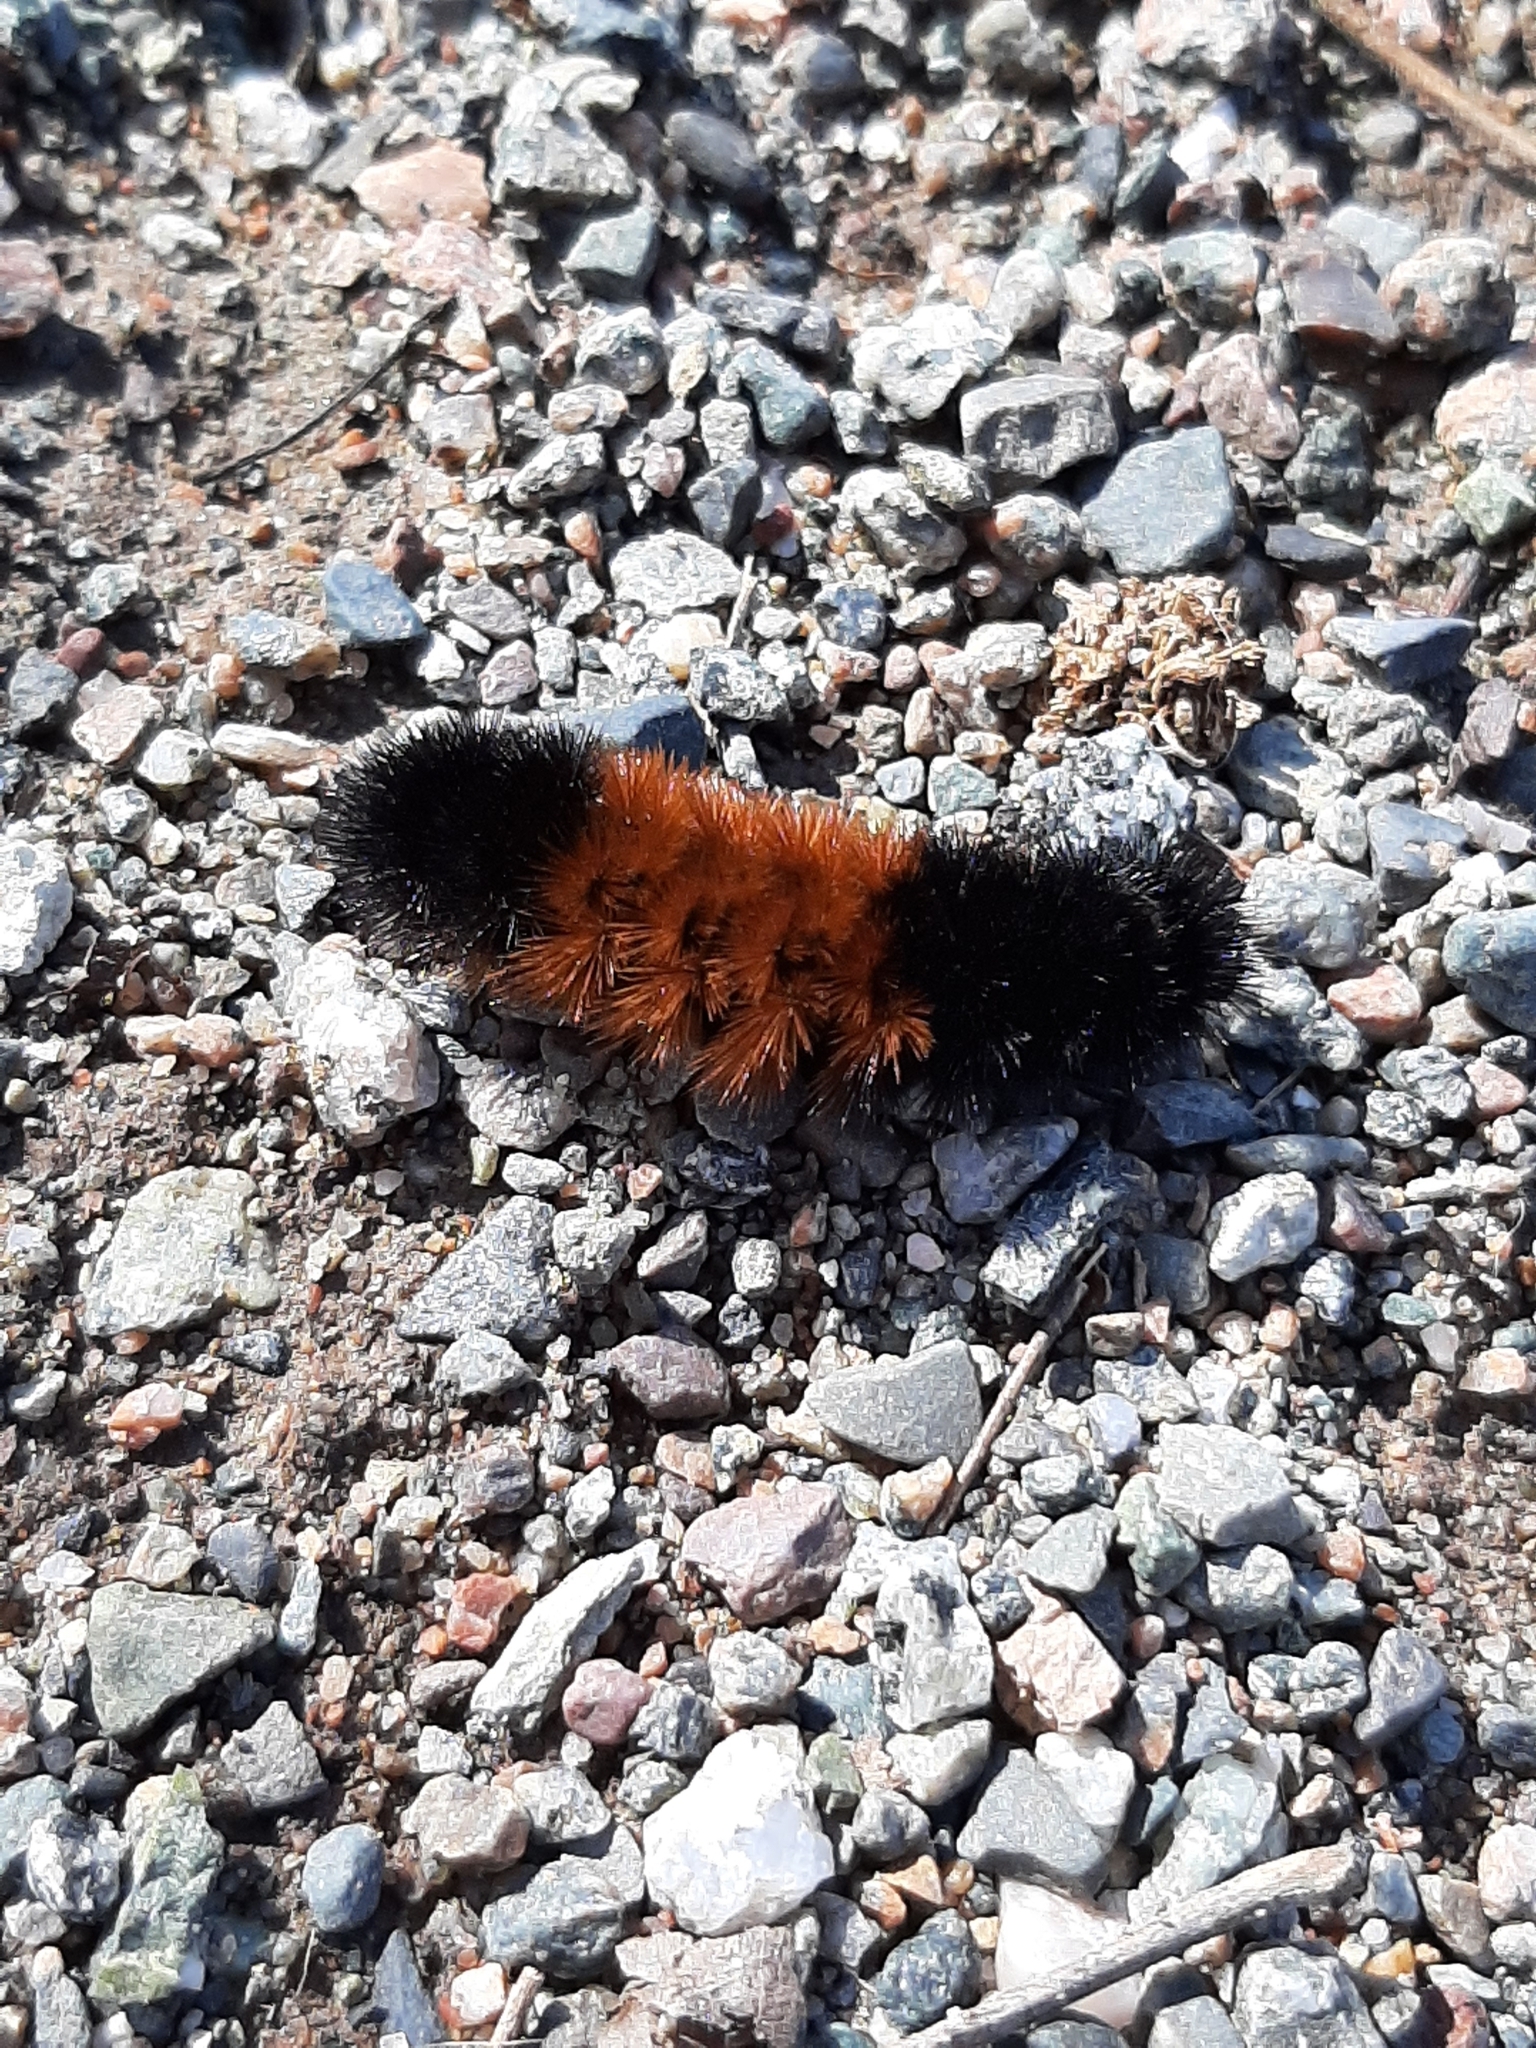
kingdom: Animalia
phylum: Arthropoda
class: Insecta
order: Lepidoptera
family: Erebidae
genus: Pyrrharctia
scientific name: Pyrrharctia isabella
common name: Isabella tiger moth
